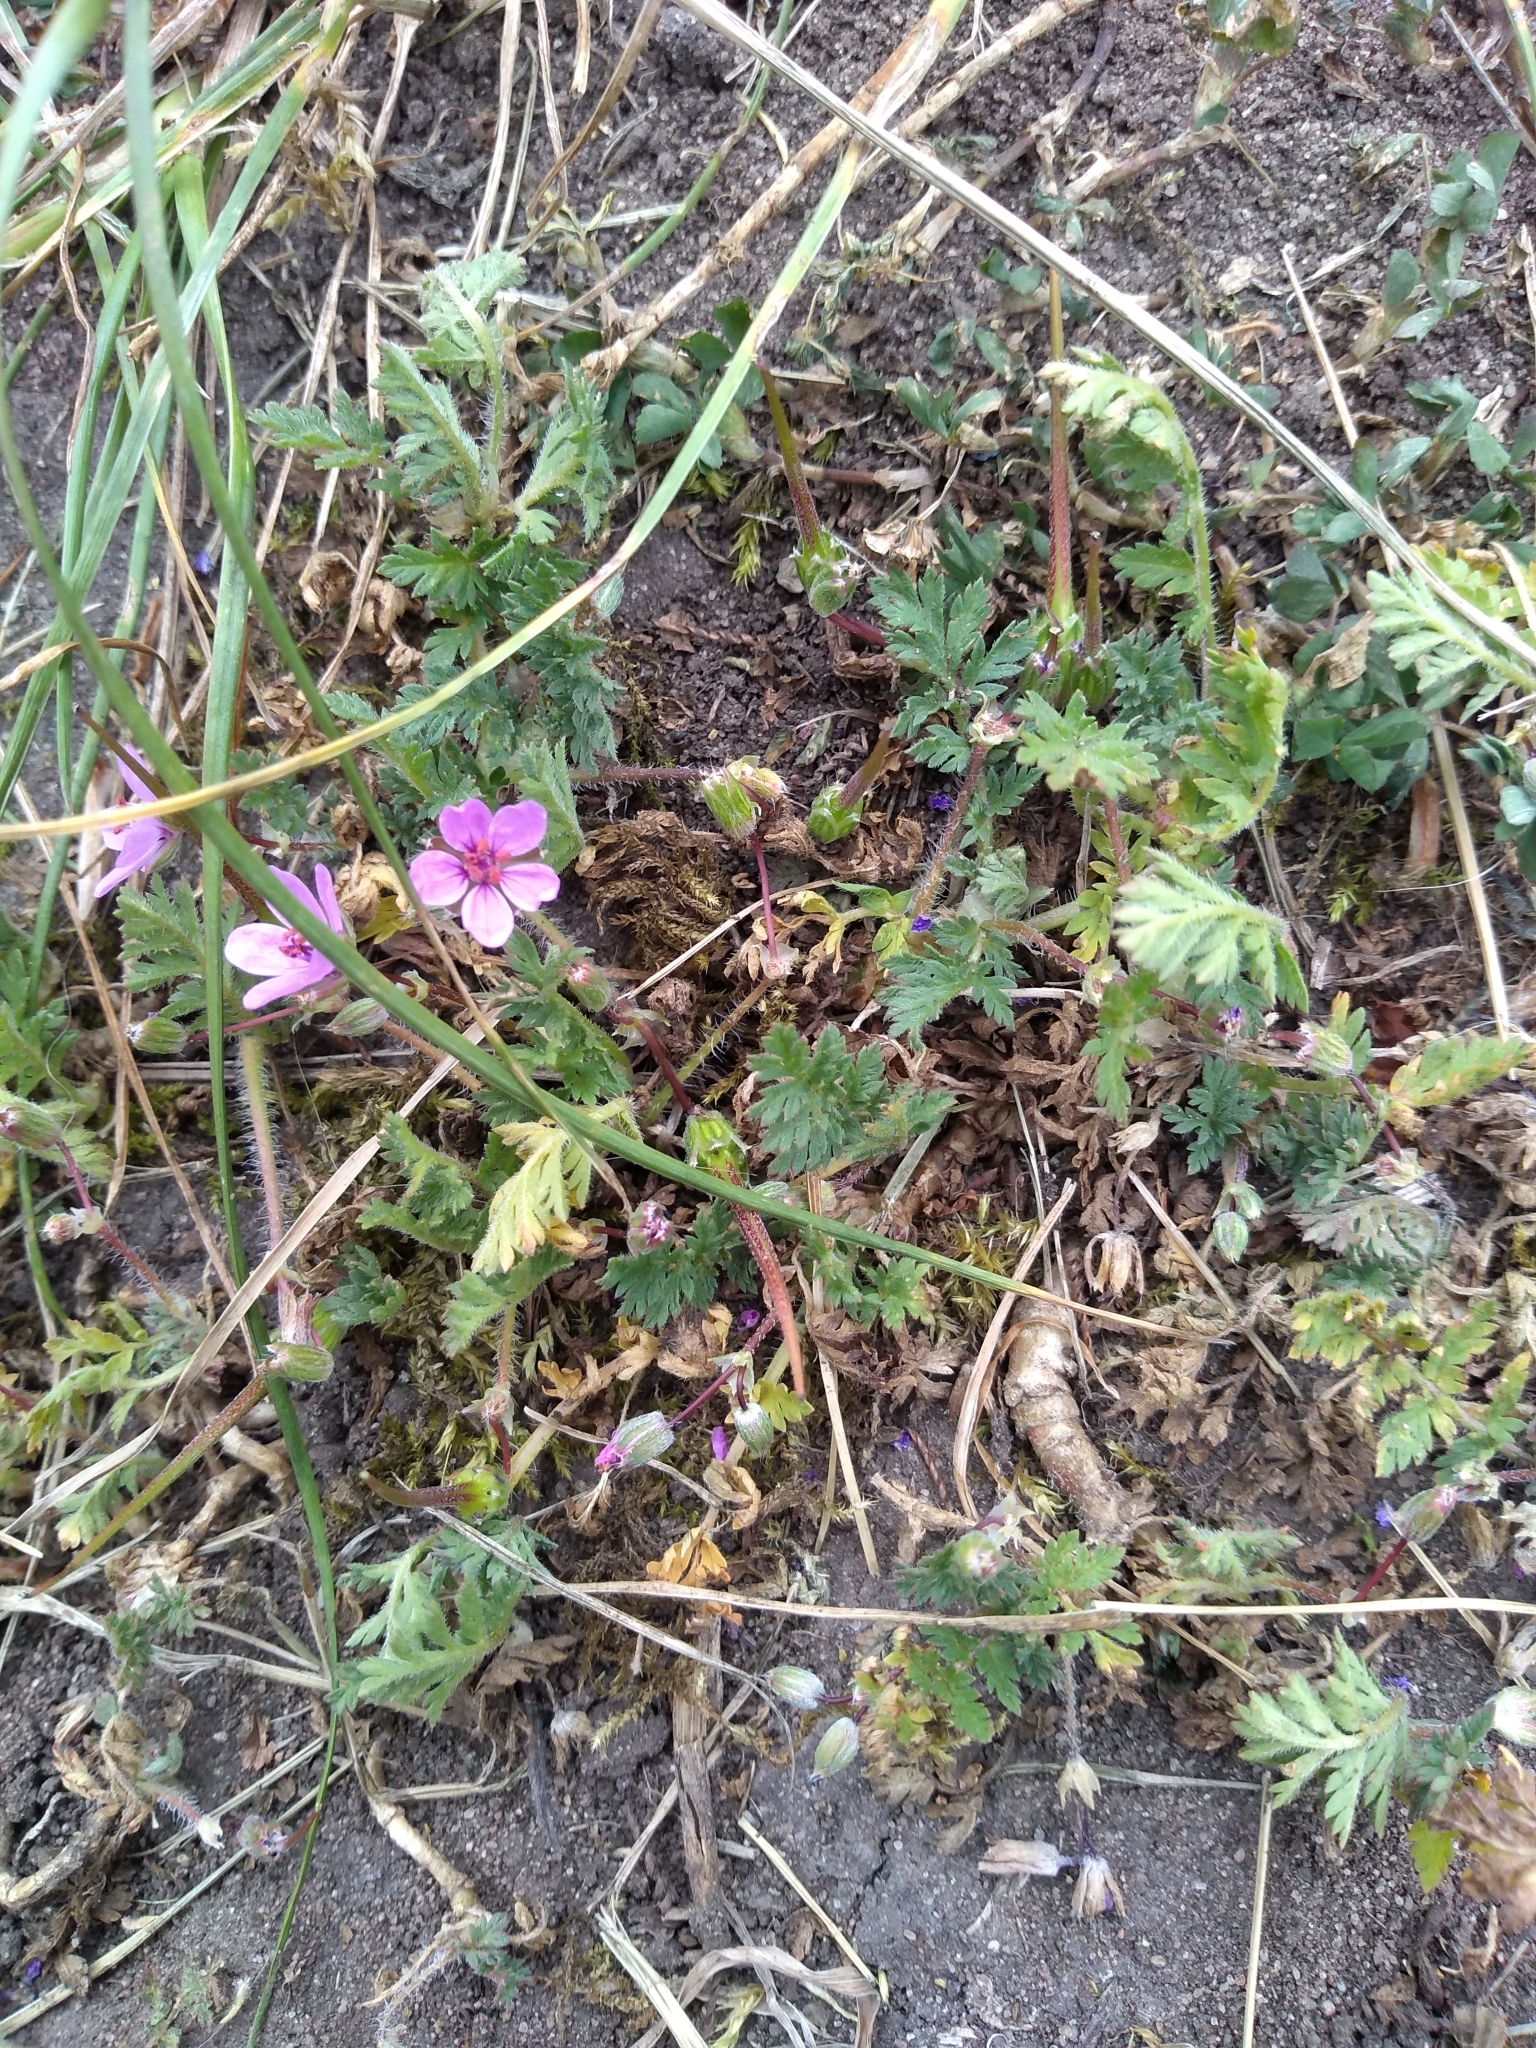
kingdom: Plantae
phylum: Tracheophyta
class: Magnoliopsida
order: Geraniales
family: Geraniaceae
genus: Erodium
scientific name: Erodium cicutarium
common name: Common stork's-bill
